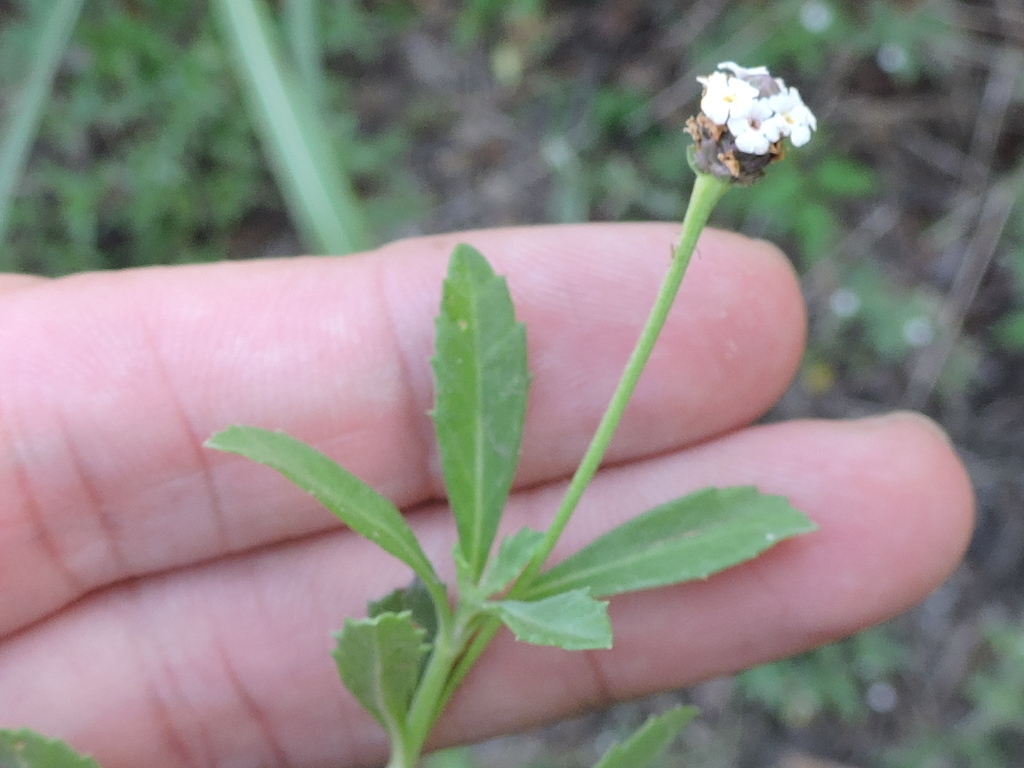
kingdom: Plantae
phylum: Tracheophyta
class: Magnoliopsida
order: Lamiales
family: Verbenaceae
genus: Phyla
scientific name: Phyla nodiflora
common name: Frogfruit
